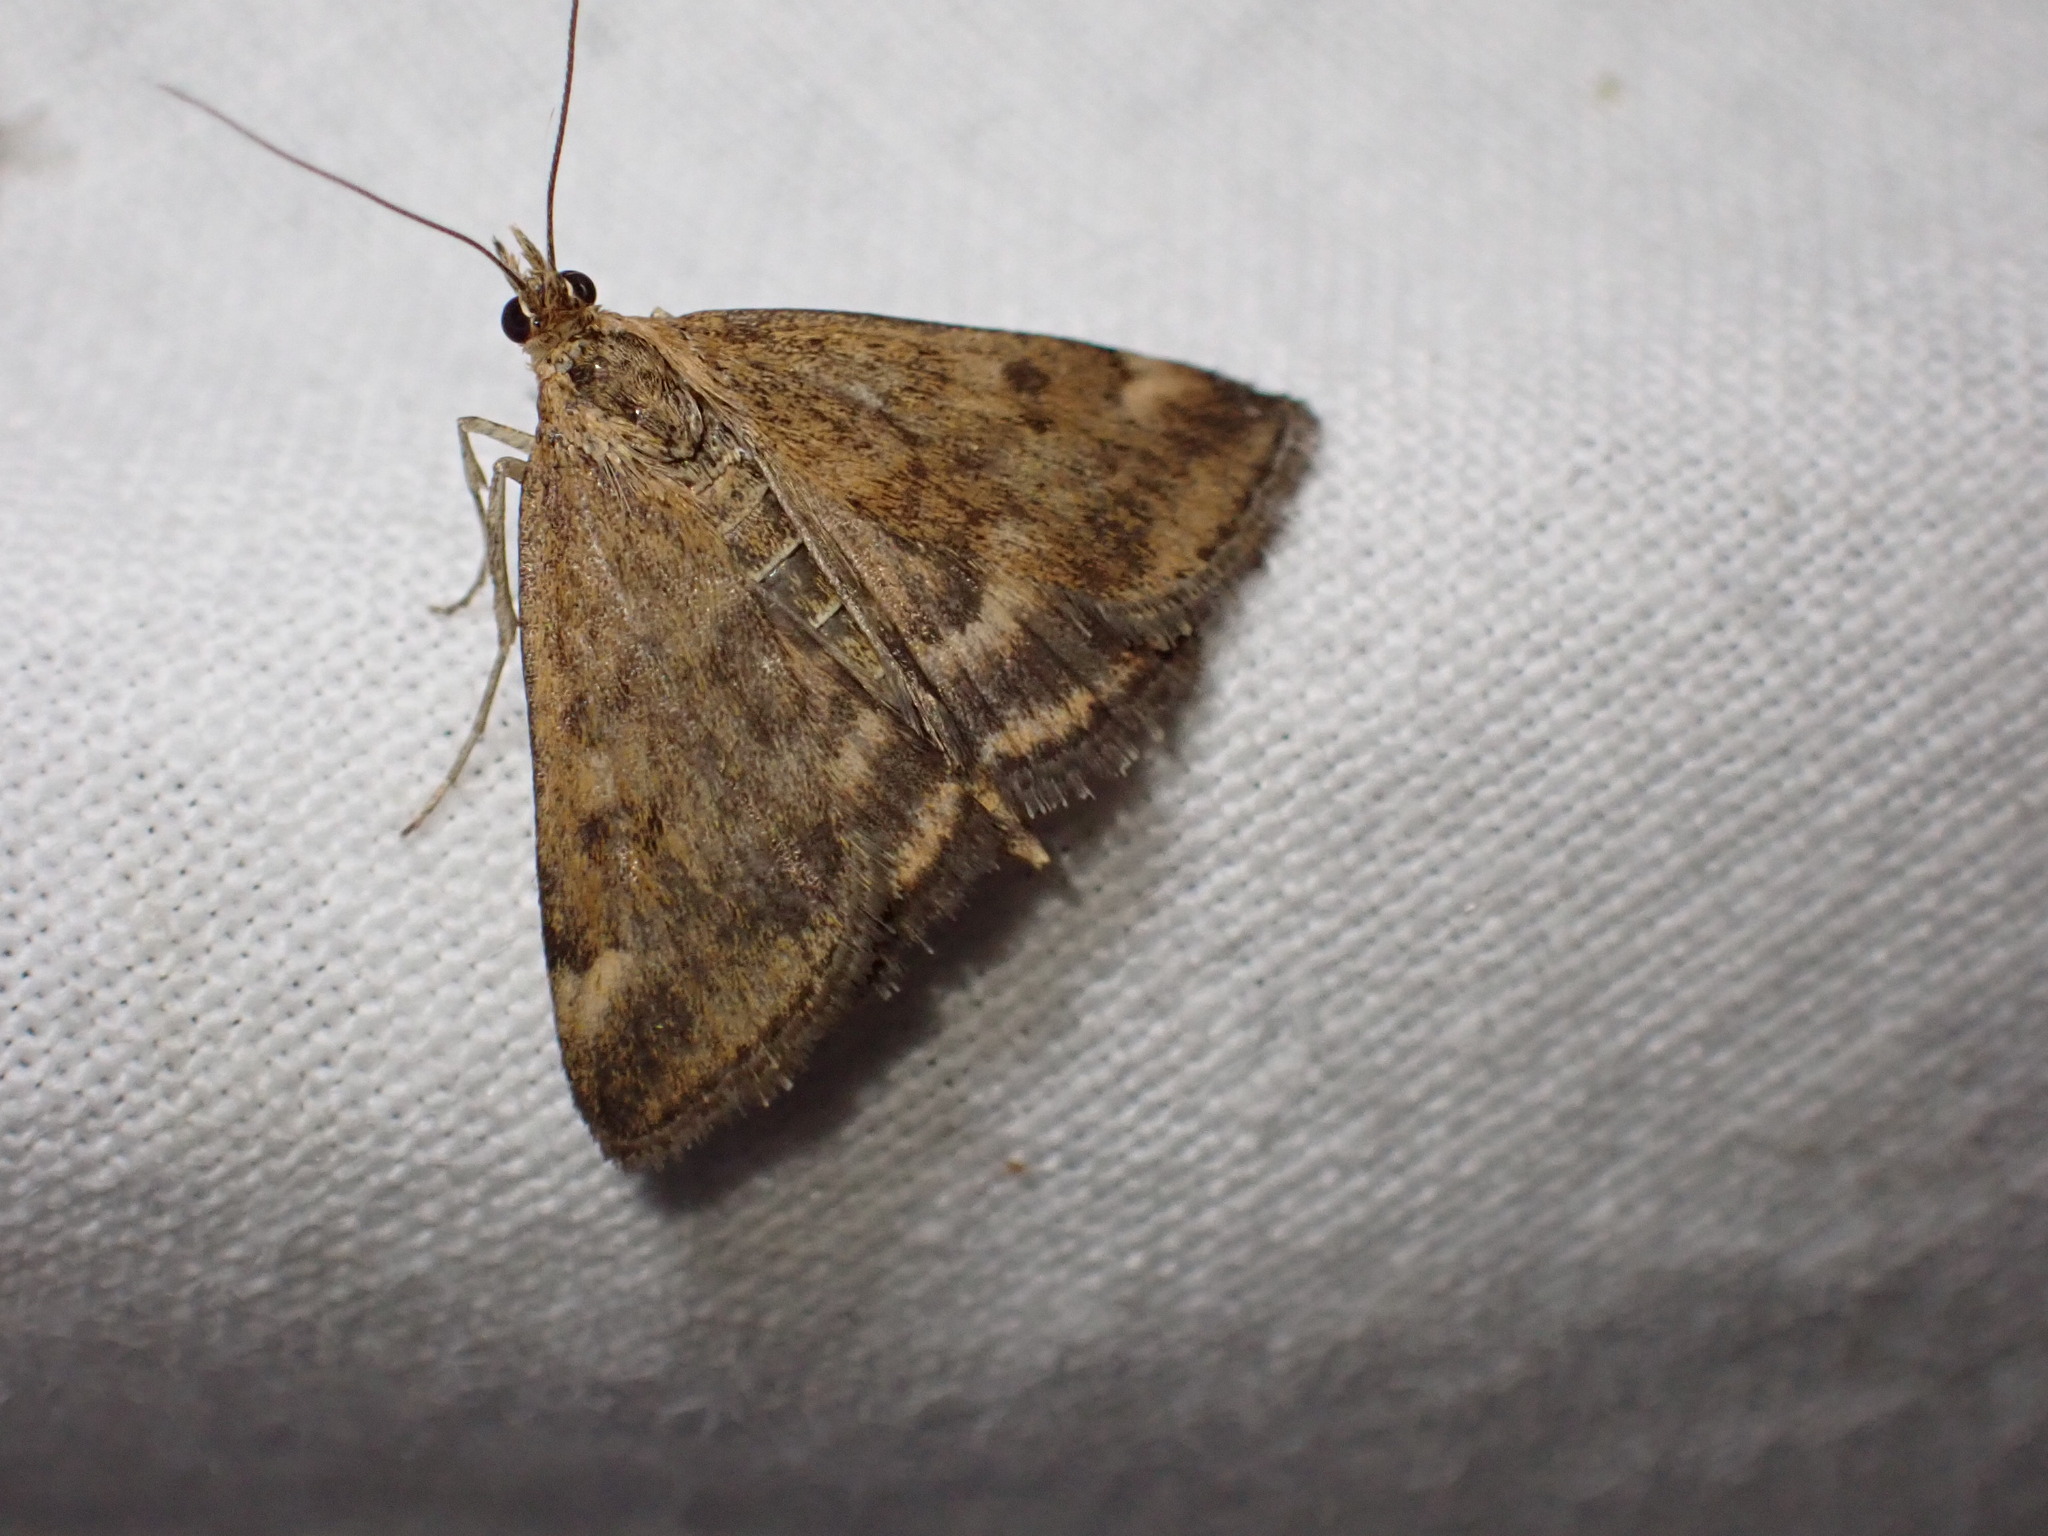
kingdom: Animalia
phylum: Arthropoda
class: Insecta
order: Lepidoptera
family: Crambidae
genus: Pyrausta
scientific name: Pyrausta despicata
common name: Straw-barred pearl
